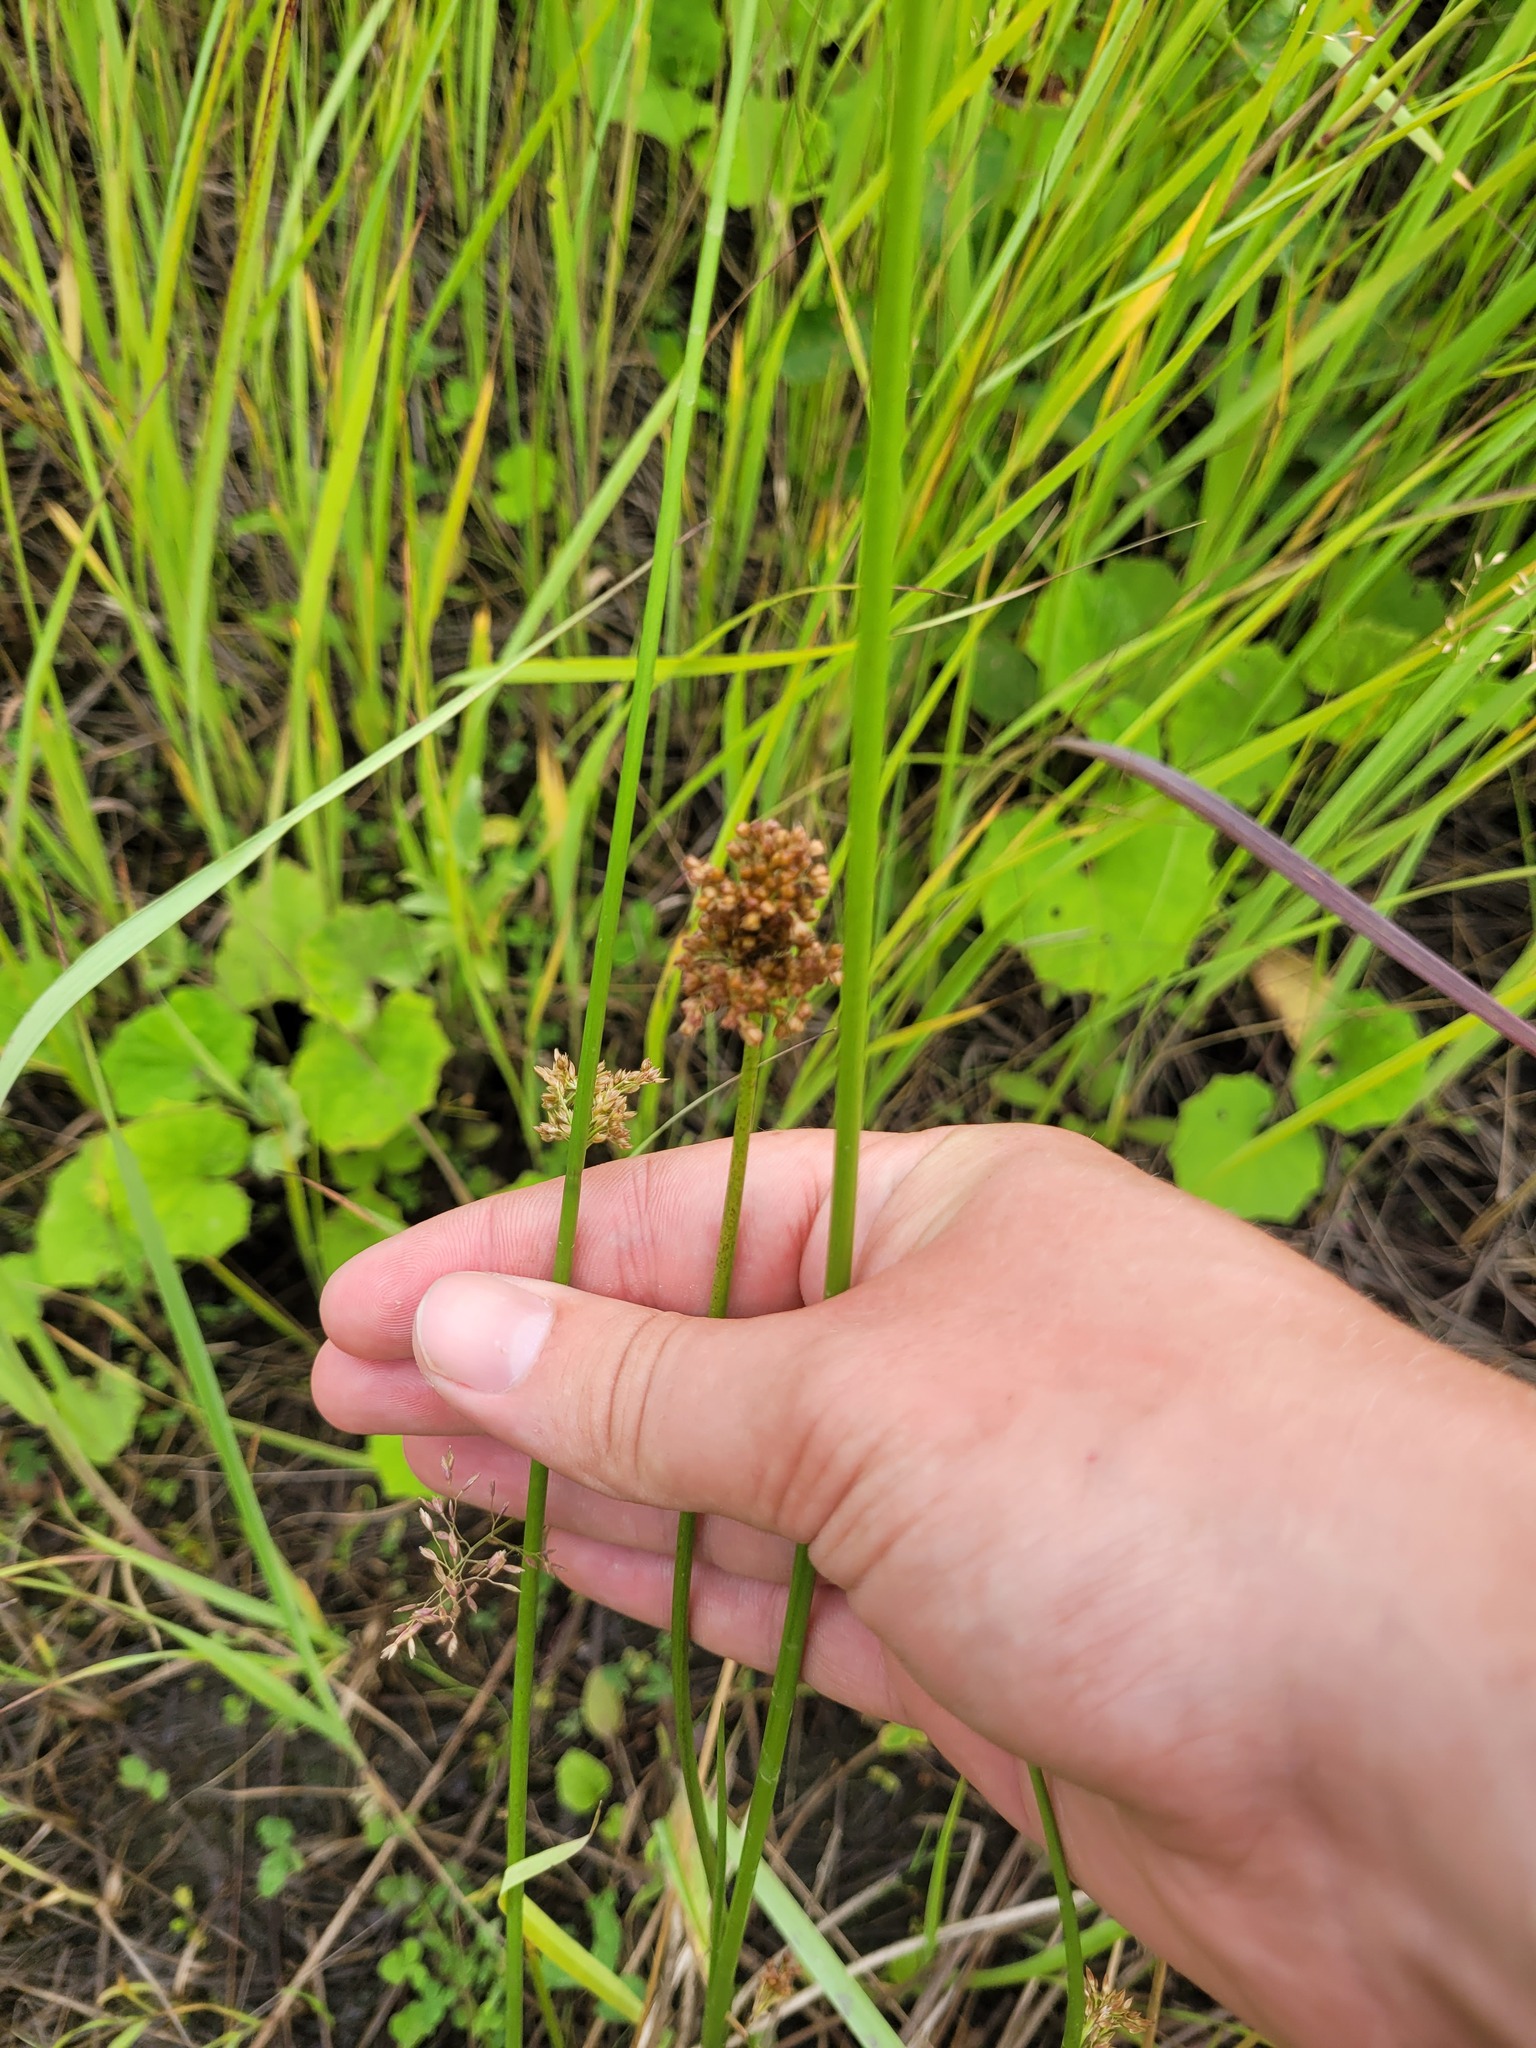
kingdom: Plantae
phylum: Tracheophyta
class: Liliopsida
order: Poales
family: Juncaceae
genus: Juncus
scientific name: Juncus effusus
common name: Soft rush
